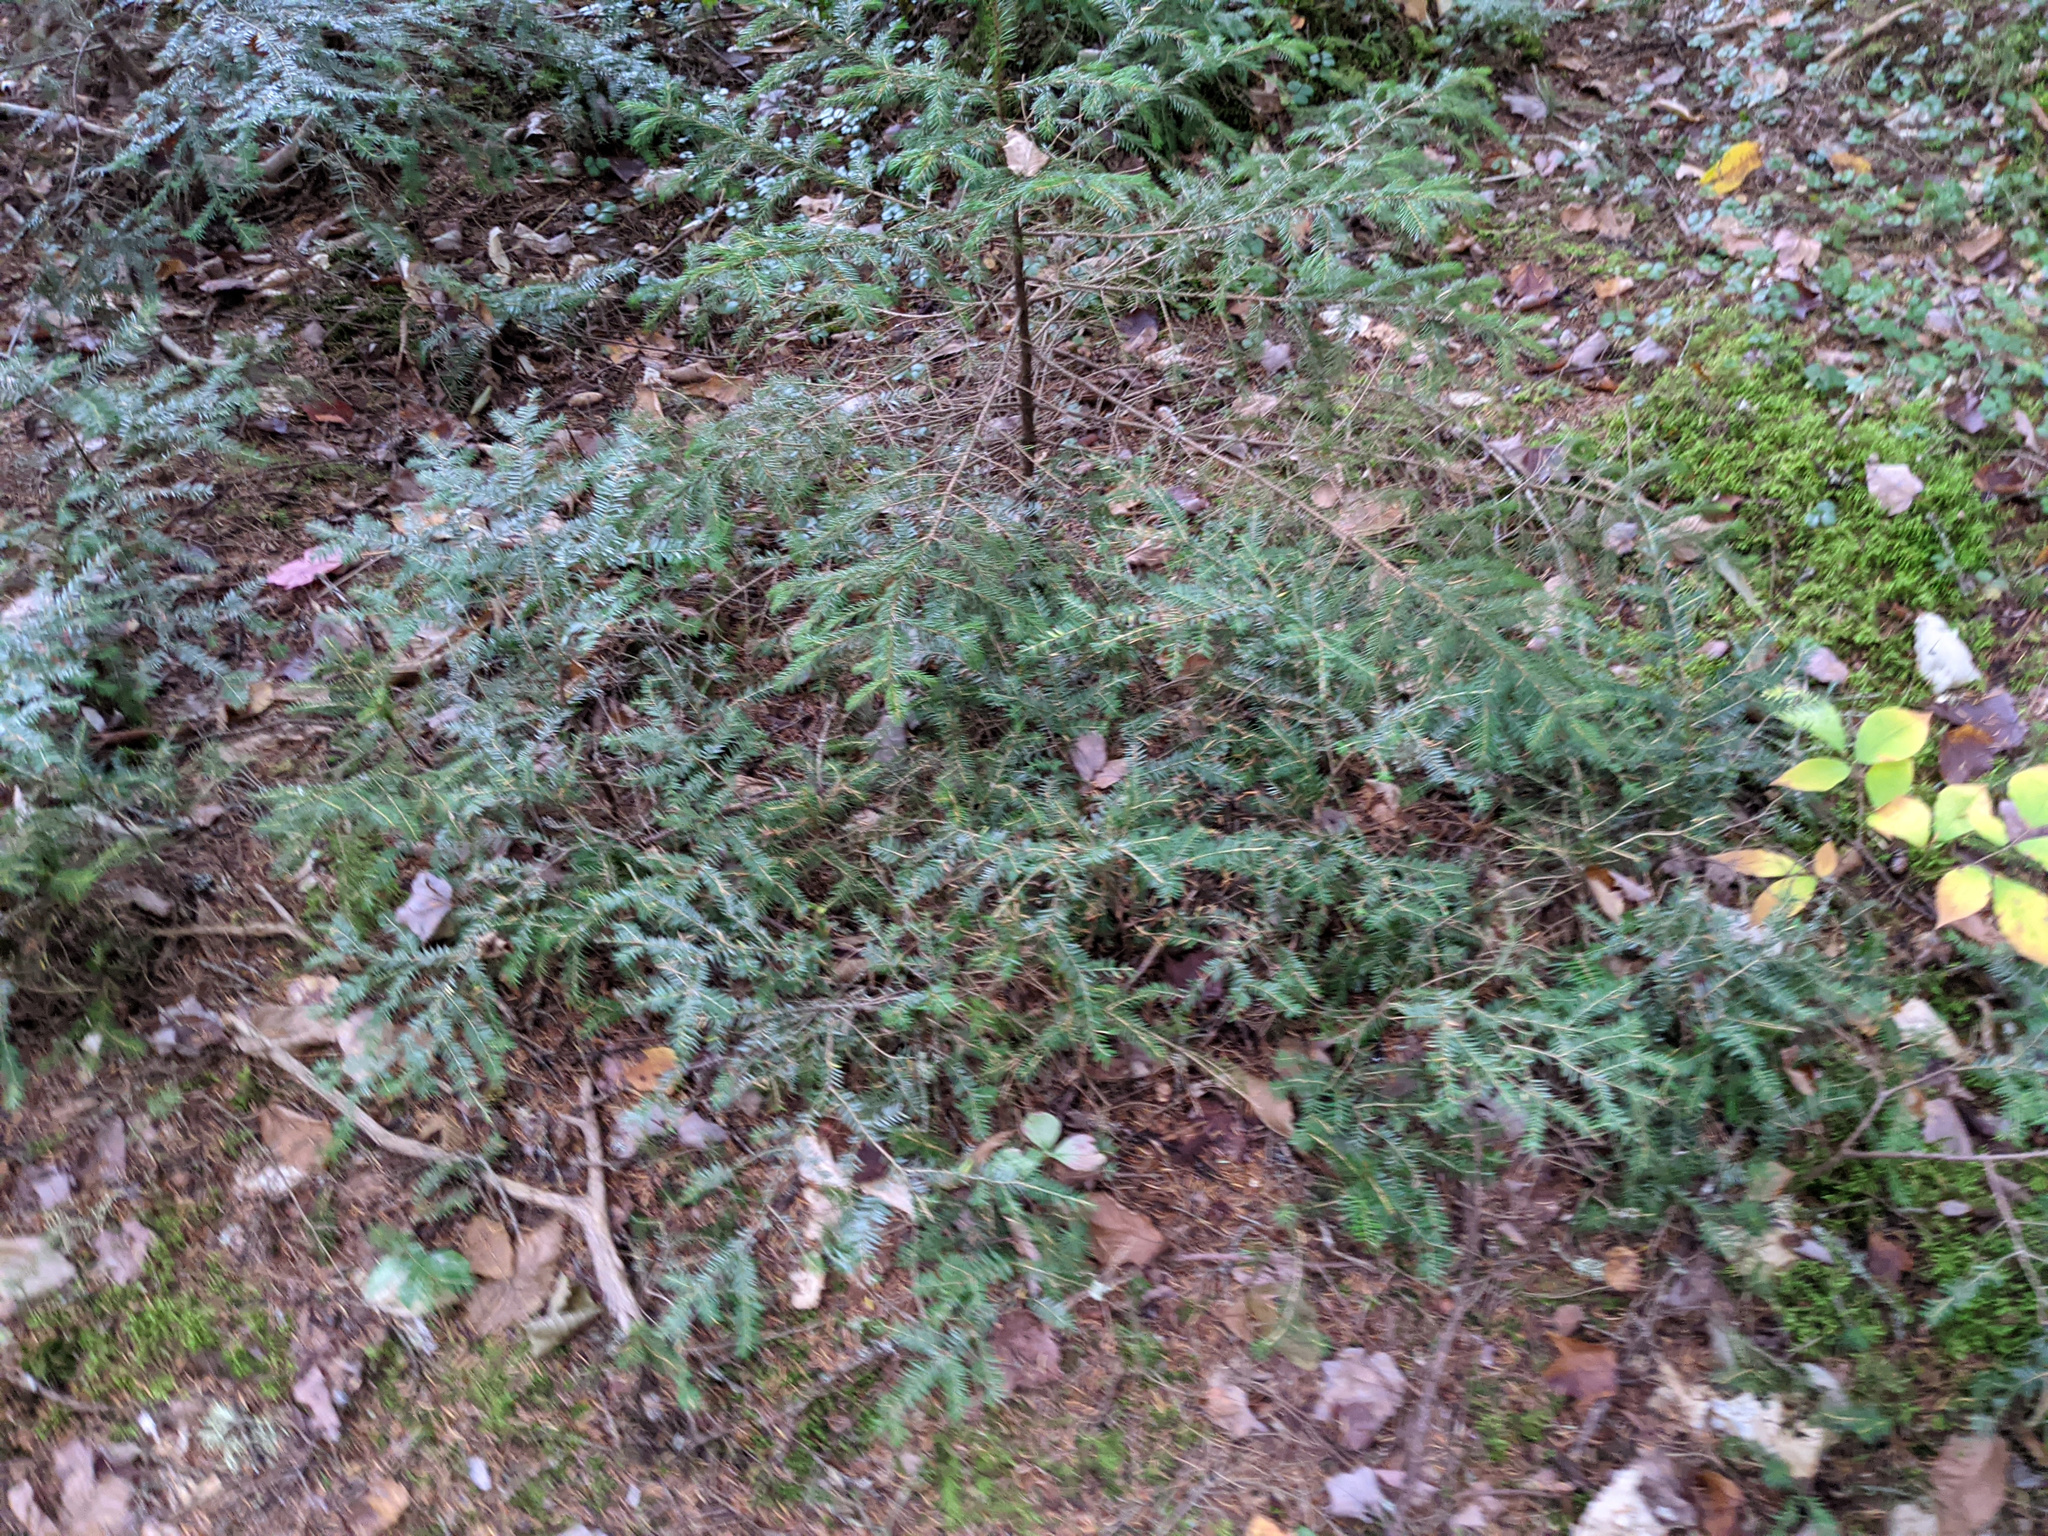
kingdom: Plantae
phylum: Tracheophyta
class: Pinopsida
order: Pinales
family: Pinaceae
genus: Tsuga
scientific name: Tsuga canadensis
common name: Eastern hemlock
